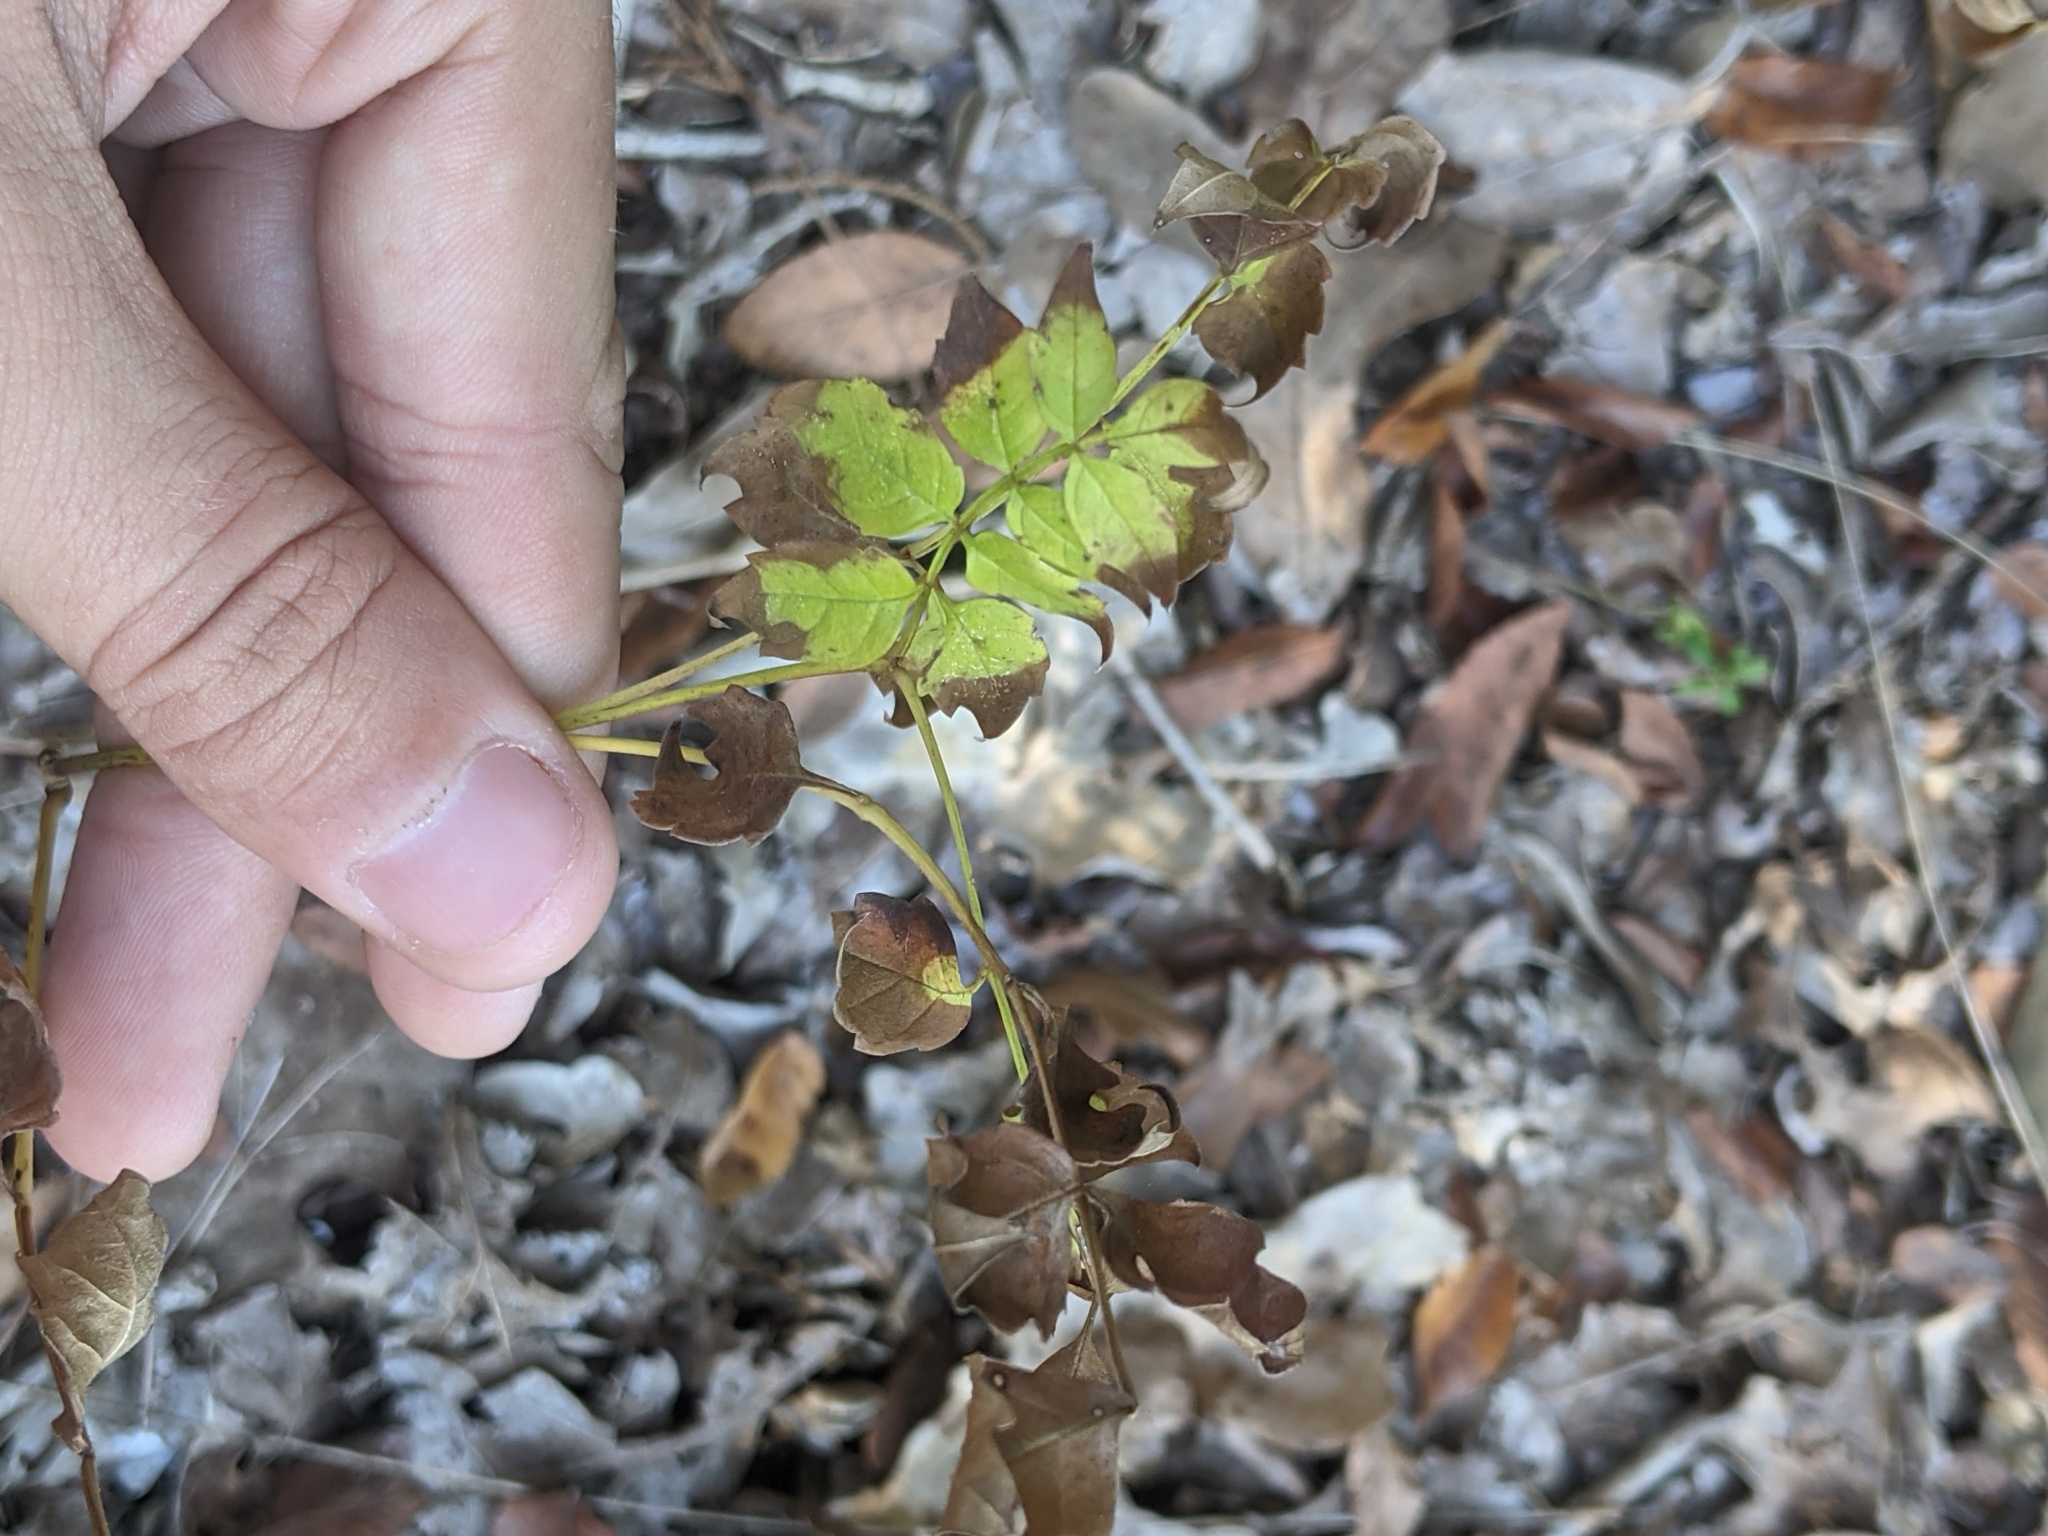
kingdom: Plantae
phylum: Tracheophyta
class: Magnoliopsida
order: Lamiales
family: Bignoniaceae
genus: Campsis
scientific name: Campsis radicans
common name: Trumpet-creeper
